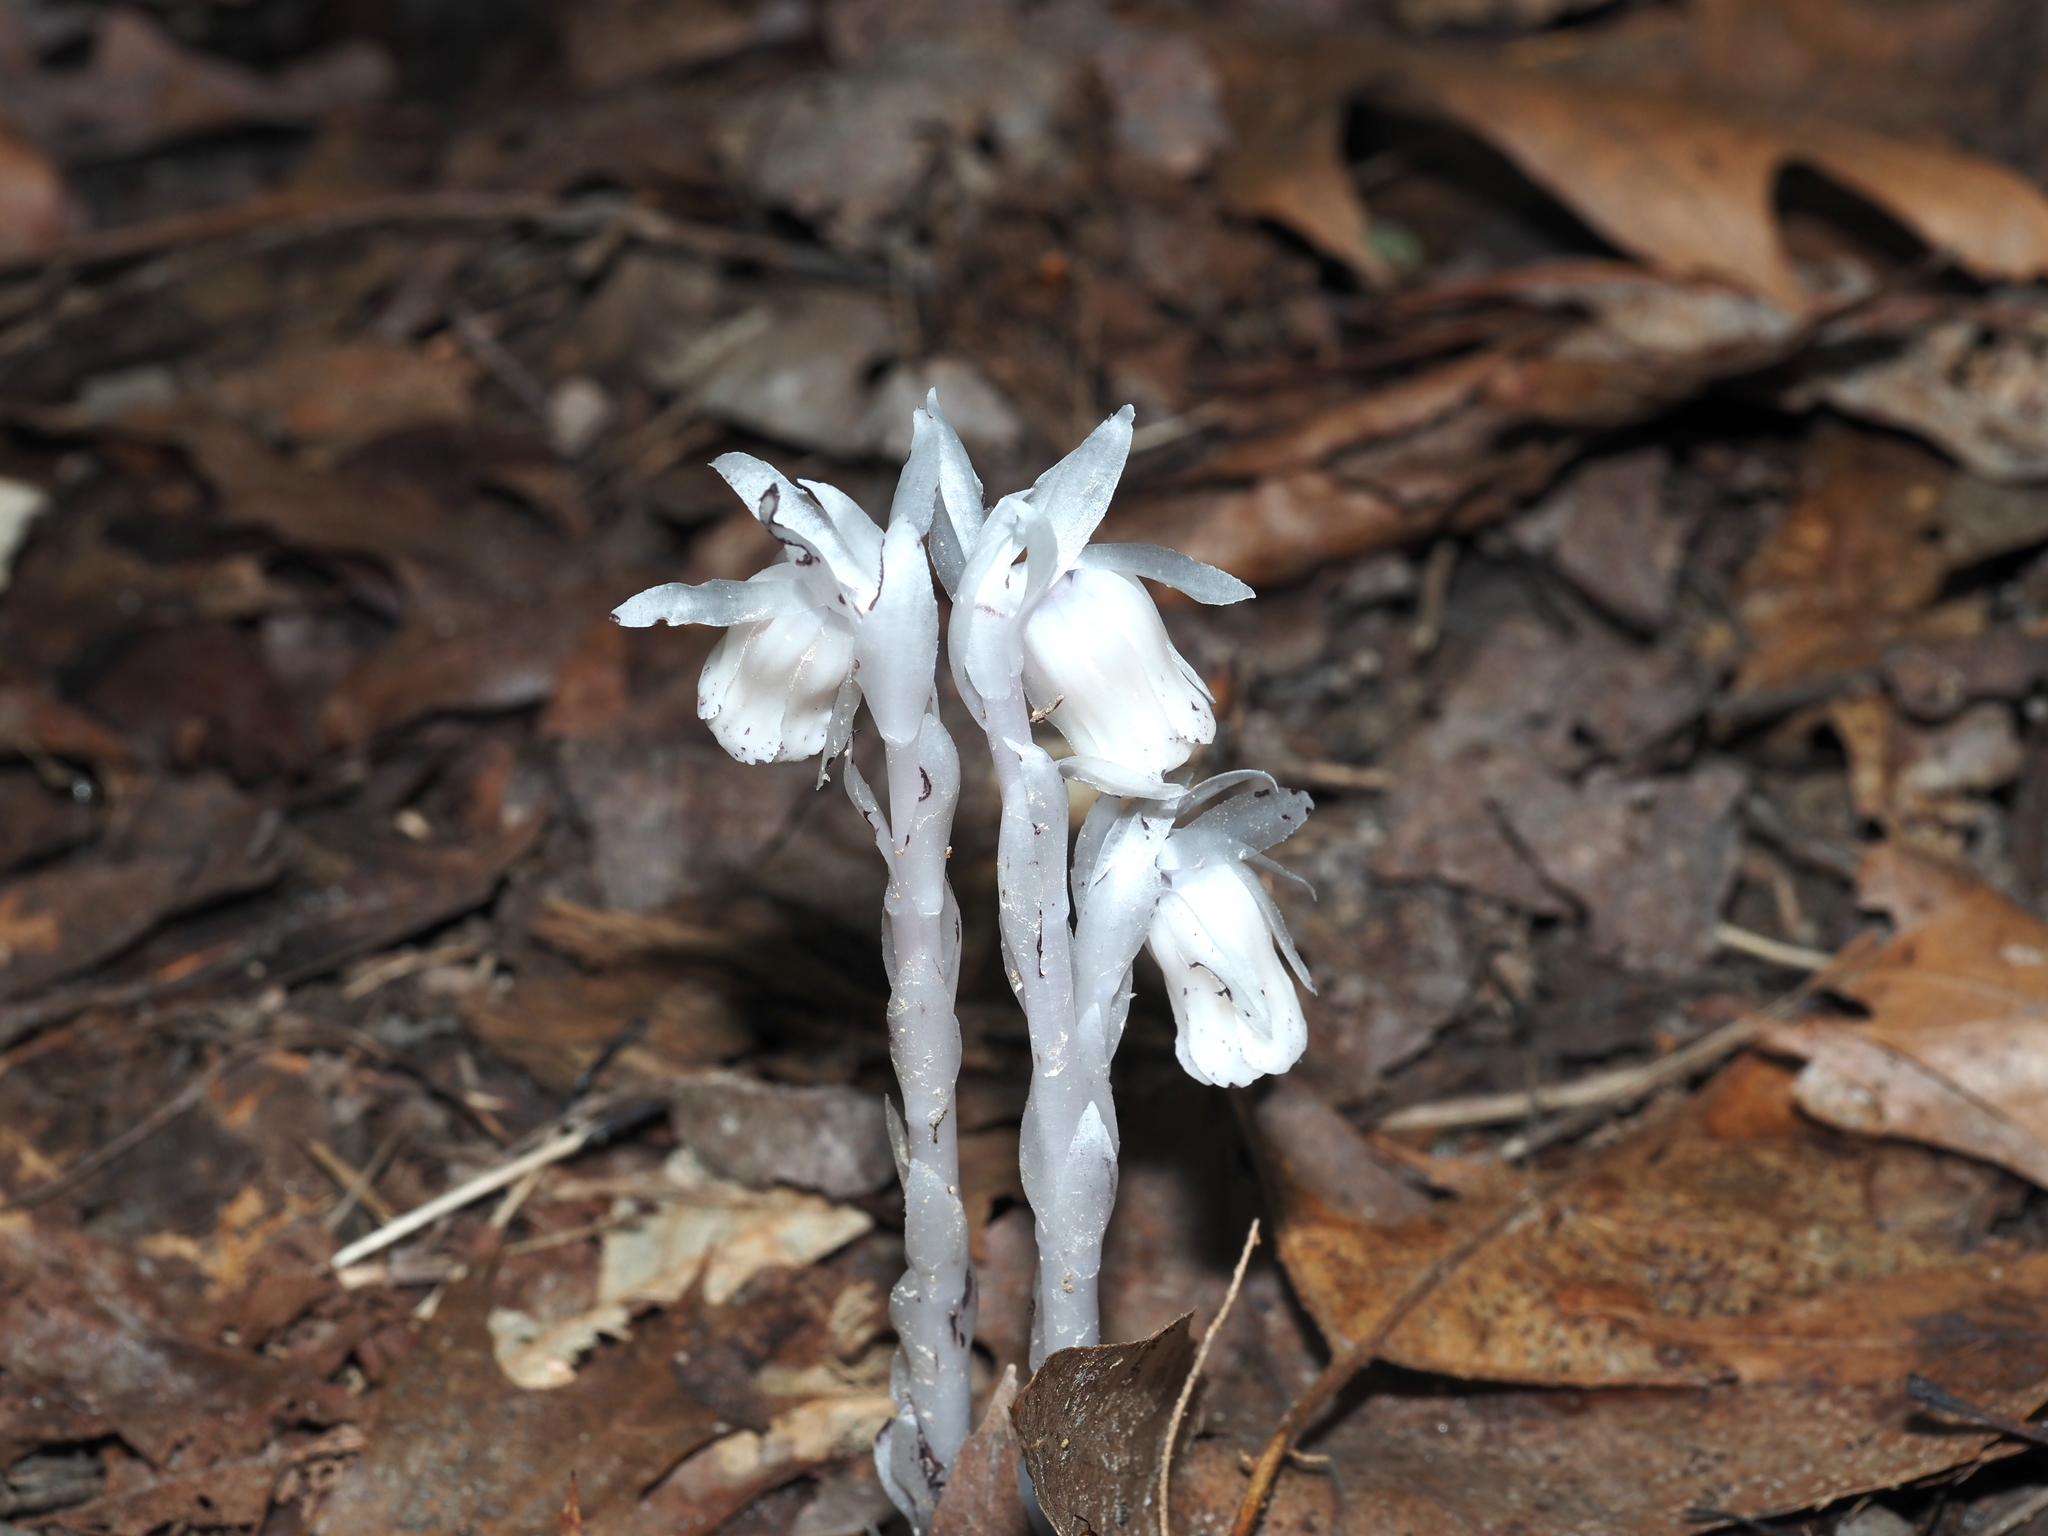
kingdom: Plantae
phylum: Tracheophyta
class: Magnoliopsida
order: Ericales
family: Ericaceae
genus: Monotropa
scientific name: Monotropa uniflora
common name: Convulsion root
